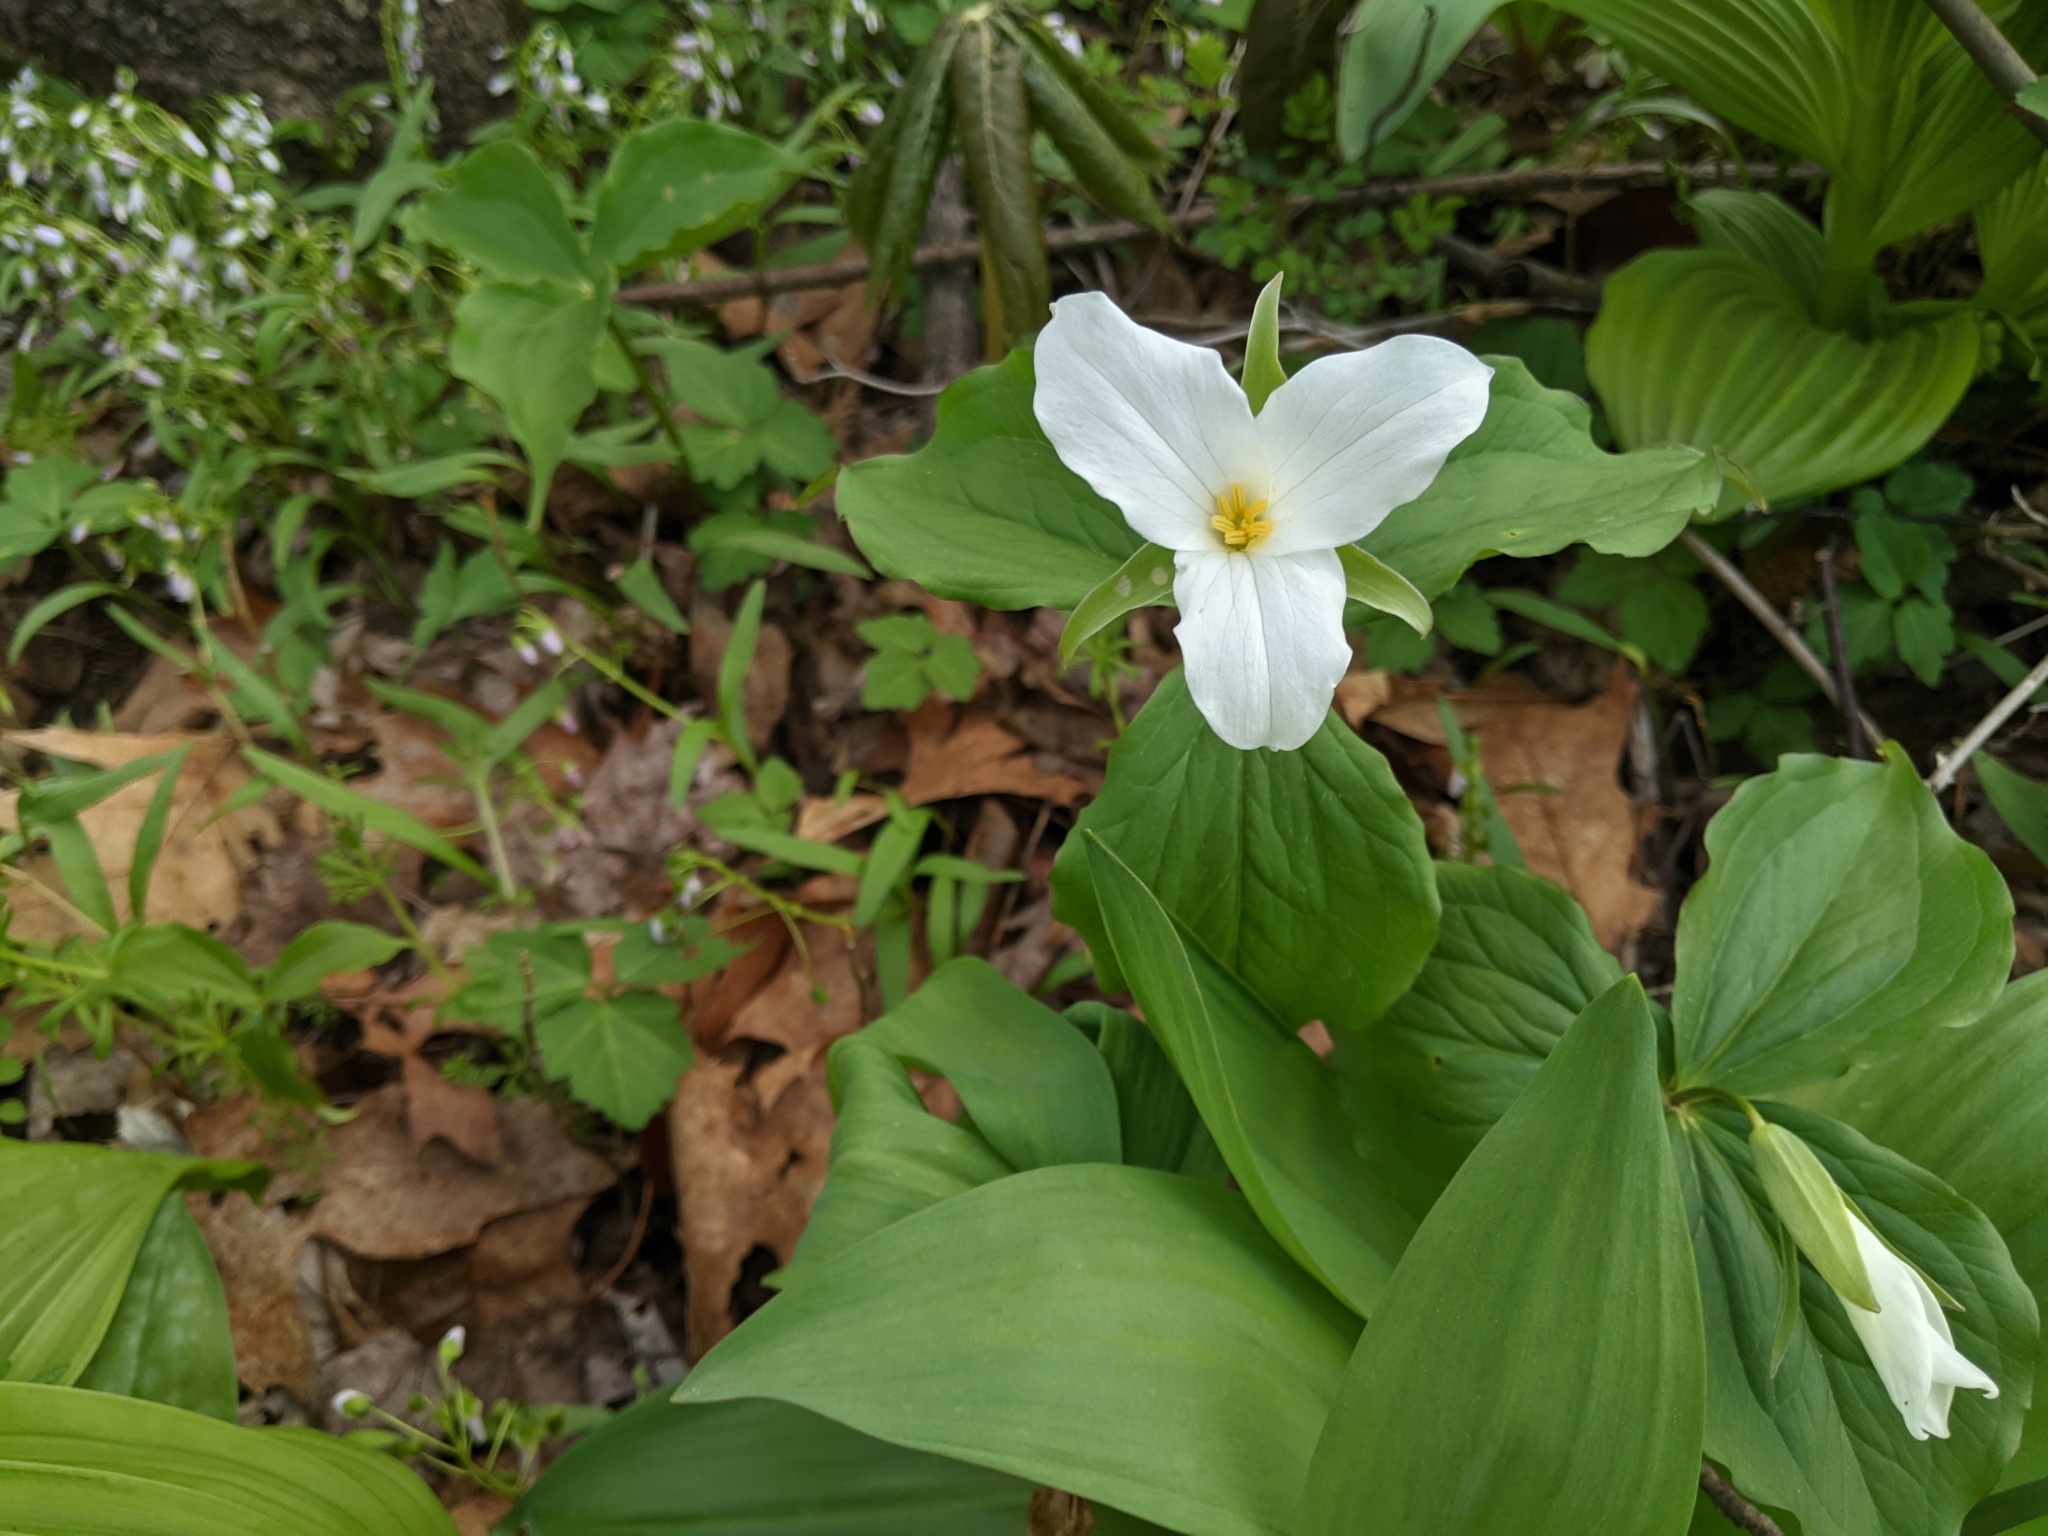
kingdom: Plantae
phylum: Tracheophyta
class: Liliopsida
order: Liliales
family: Melanthiaceae
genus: Trillium
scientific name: Trillium grandiflorum
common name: Great white trillium
